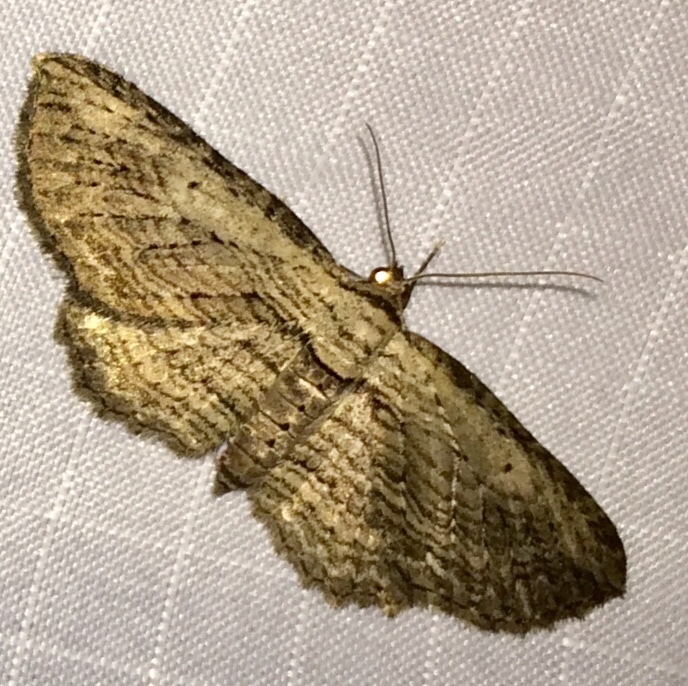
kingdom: Animalia
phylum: Arthropoda
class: Insecta
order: Lepidoptera
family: Geometridae
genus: Horisme
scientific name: Horisme intestinata
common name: Brown bark carpet
